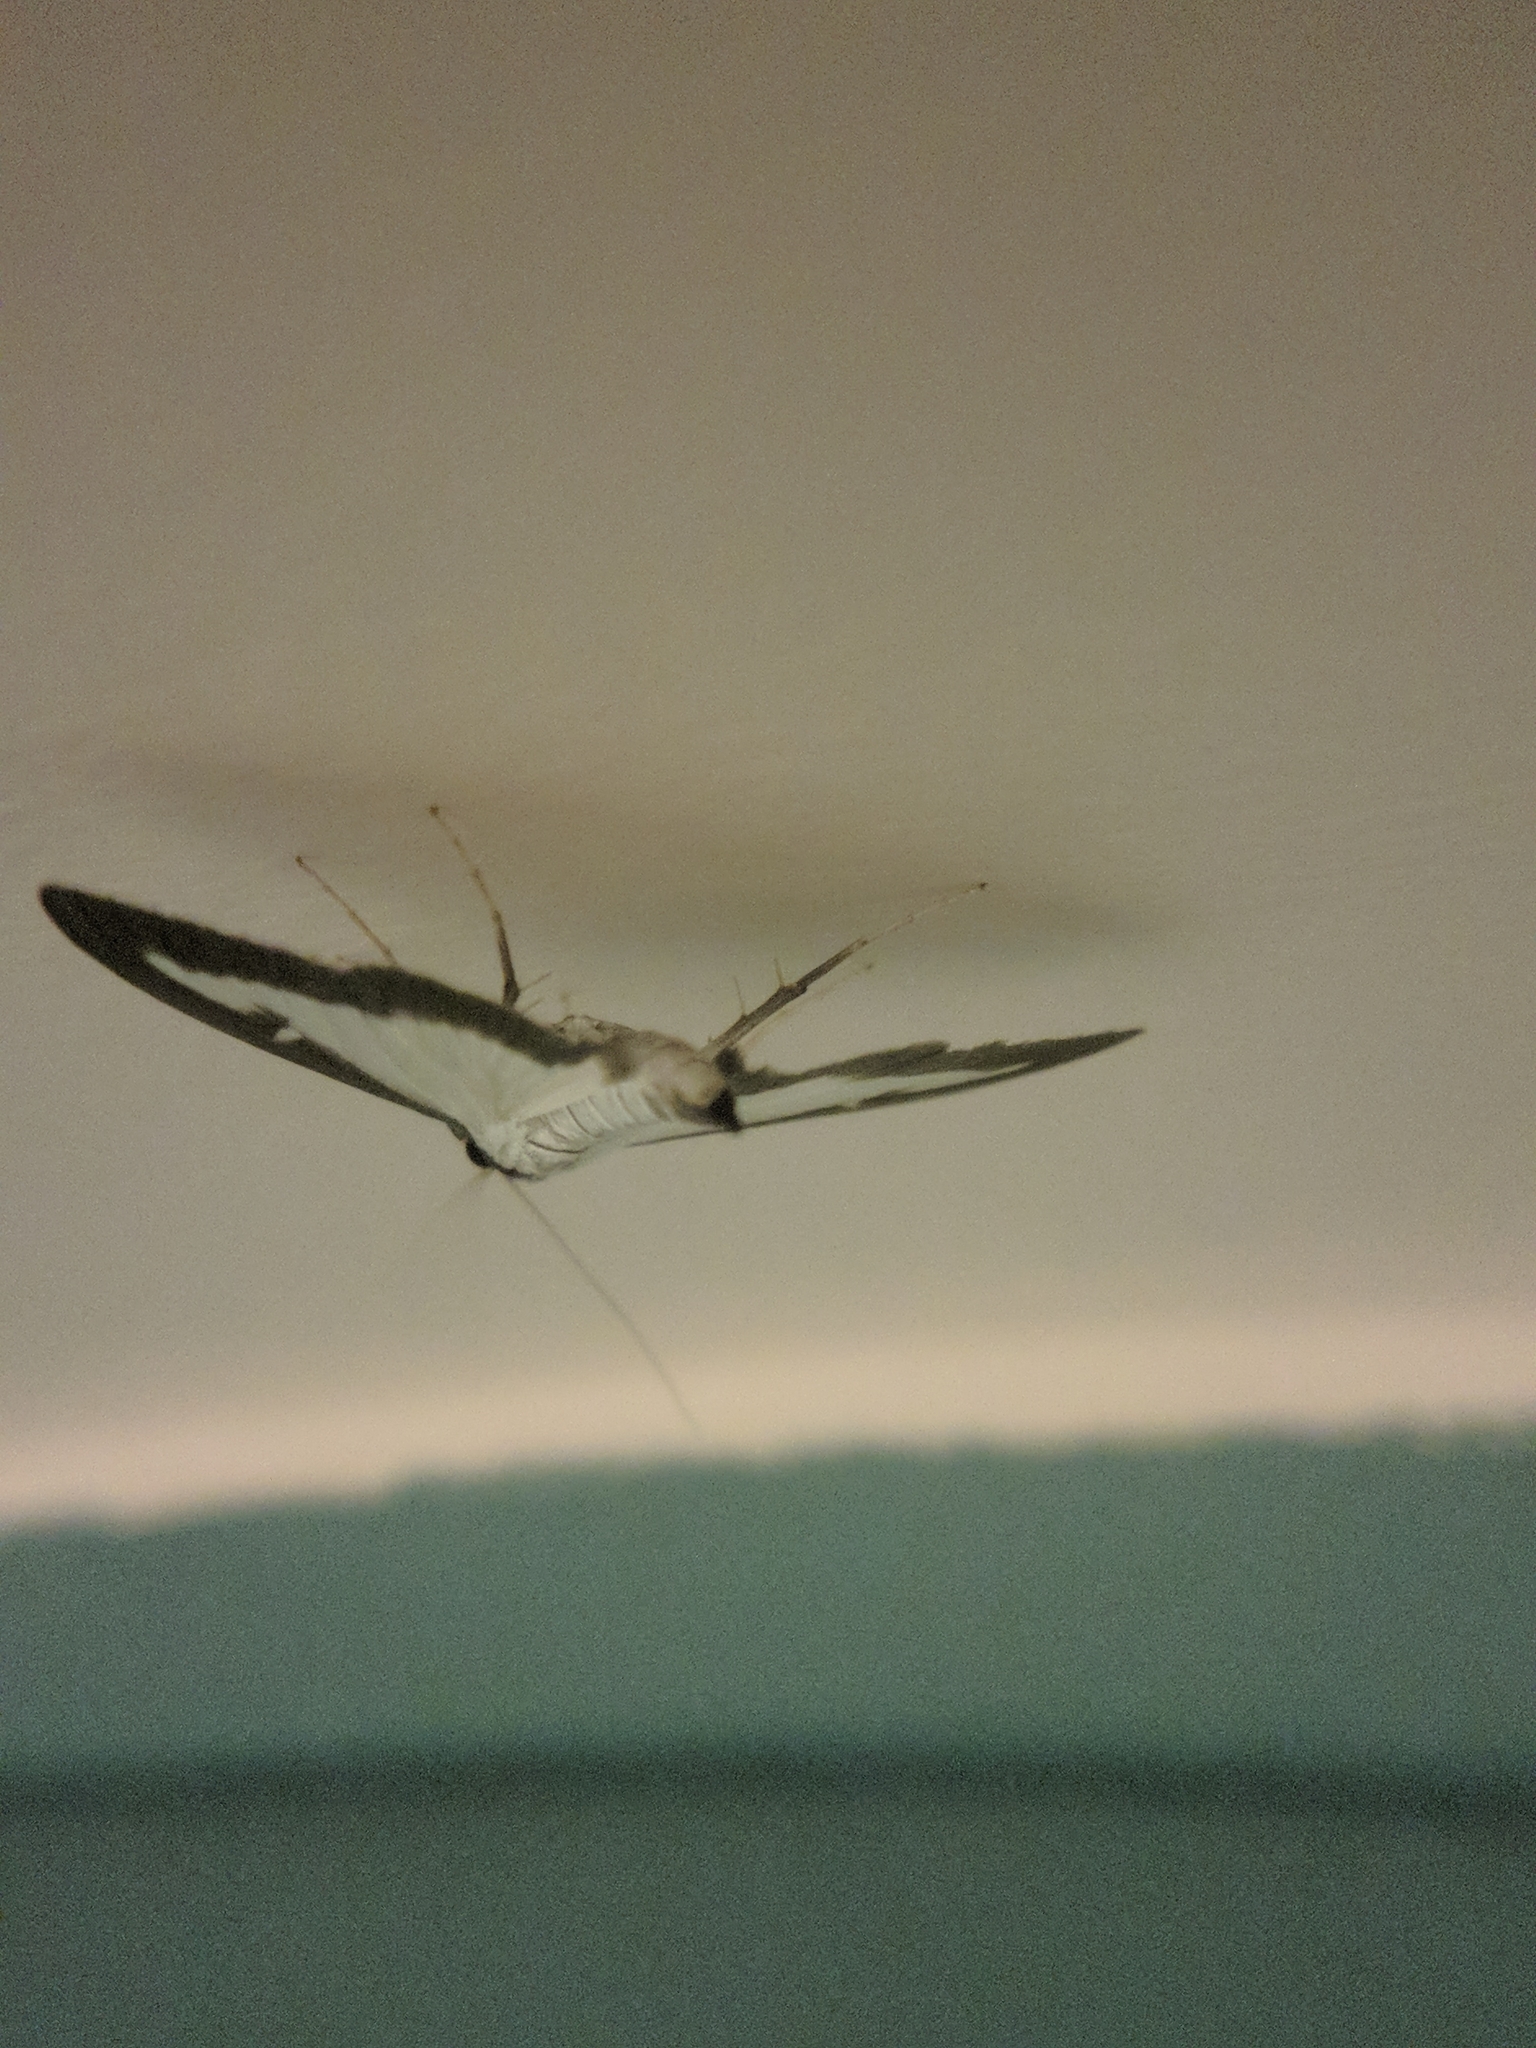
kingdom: Animalia
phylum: Arthropoda
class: Insecta
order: Lepidoptera
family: Crambidae
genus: Cydalima
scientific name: Cydalima perspectalis
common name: Box tree moth
